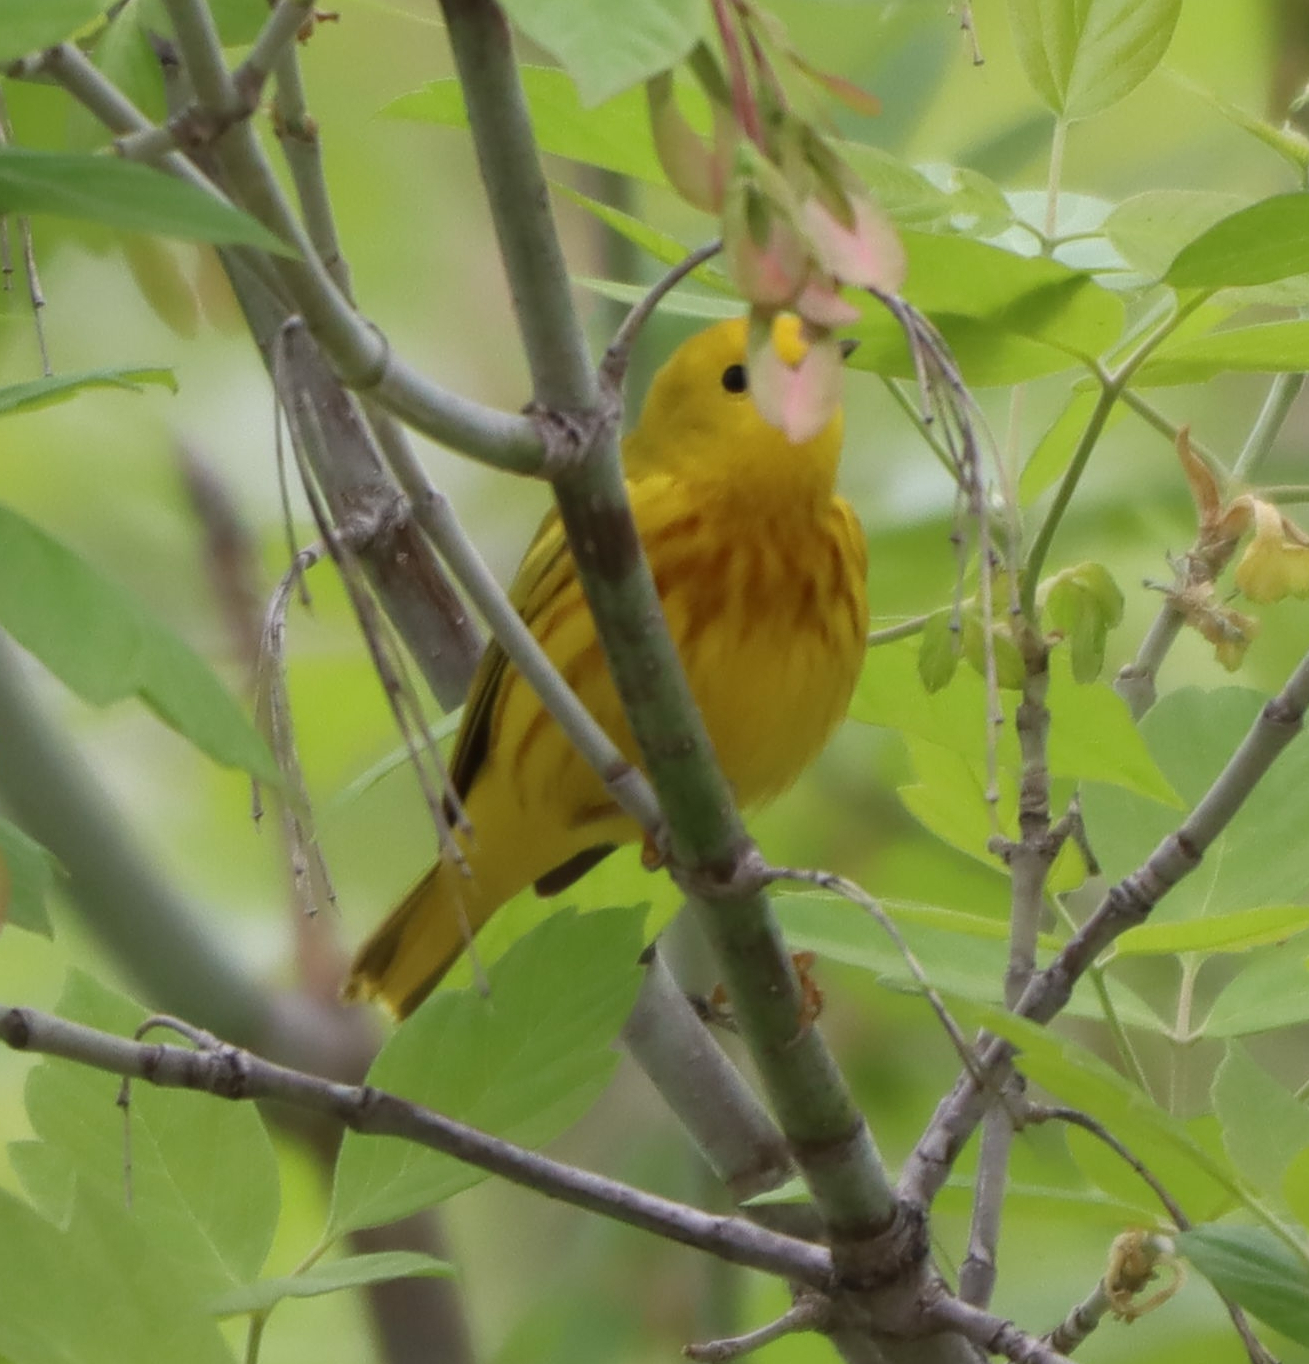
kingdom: Animalia
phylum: Chordata
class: Aves
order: Passeriformes
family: Parulidae
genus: Setophaga
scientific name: Setophaga petechia
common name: Yellow warbler
